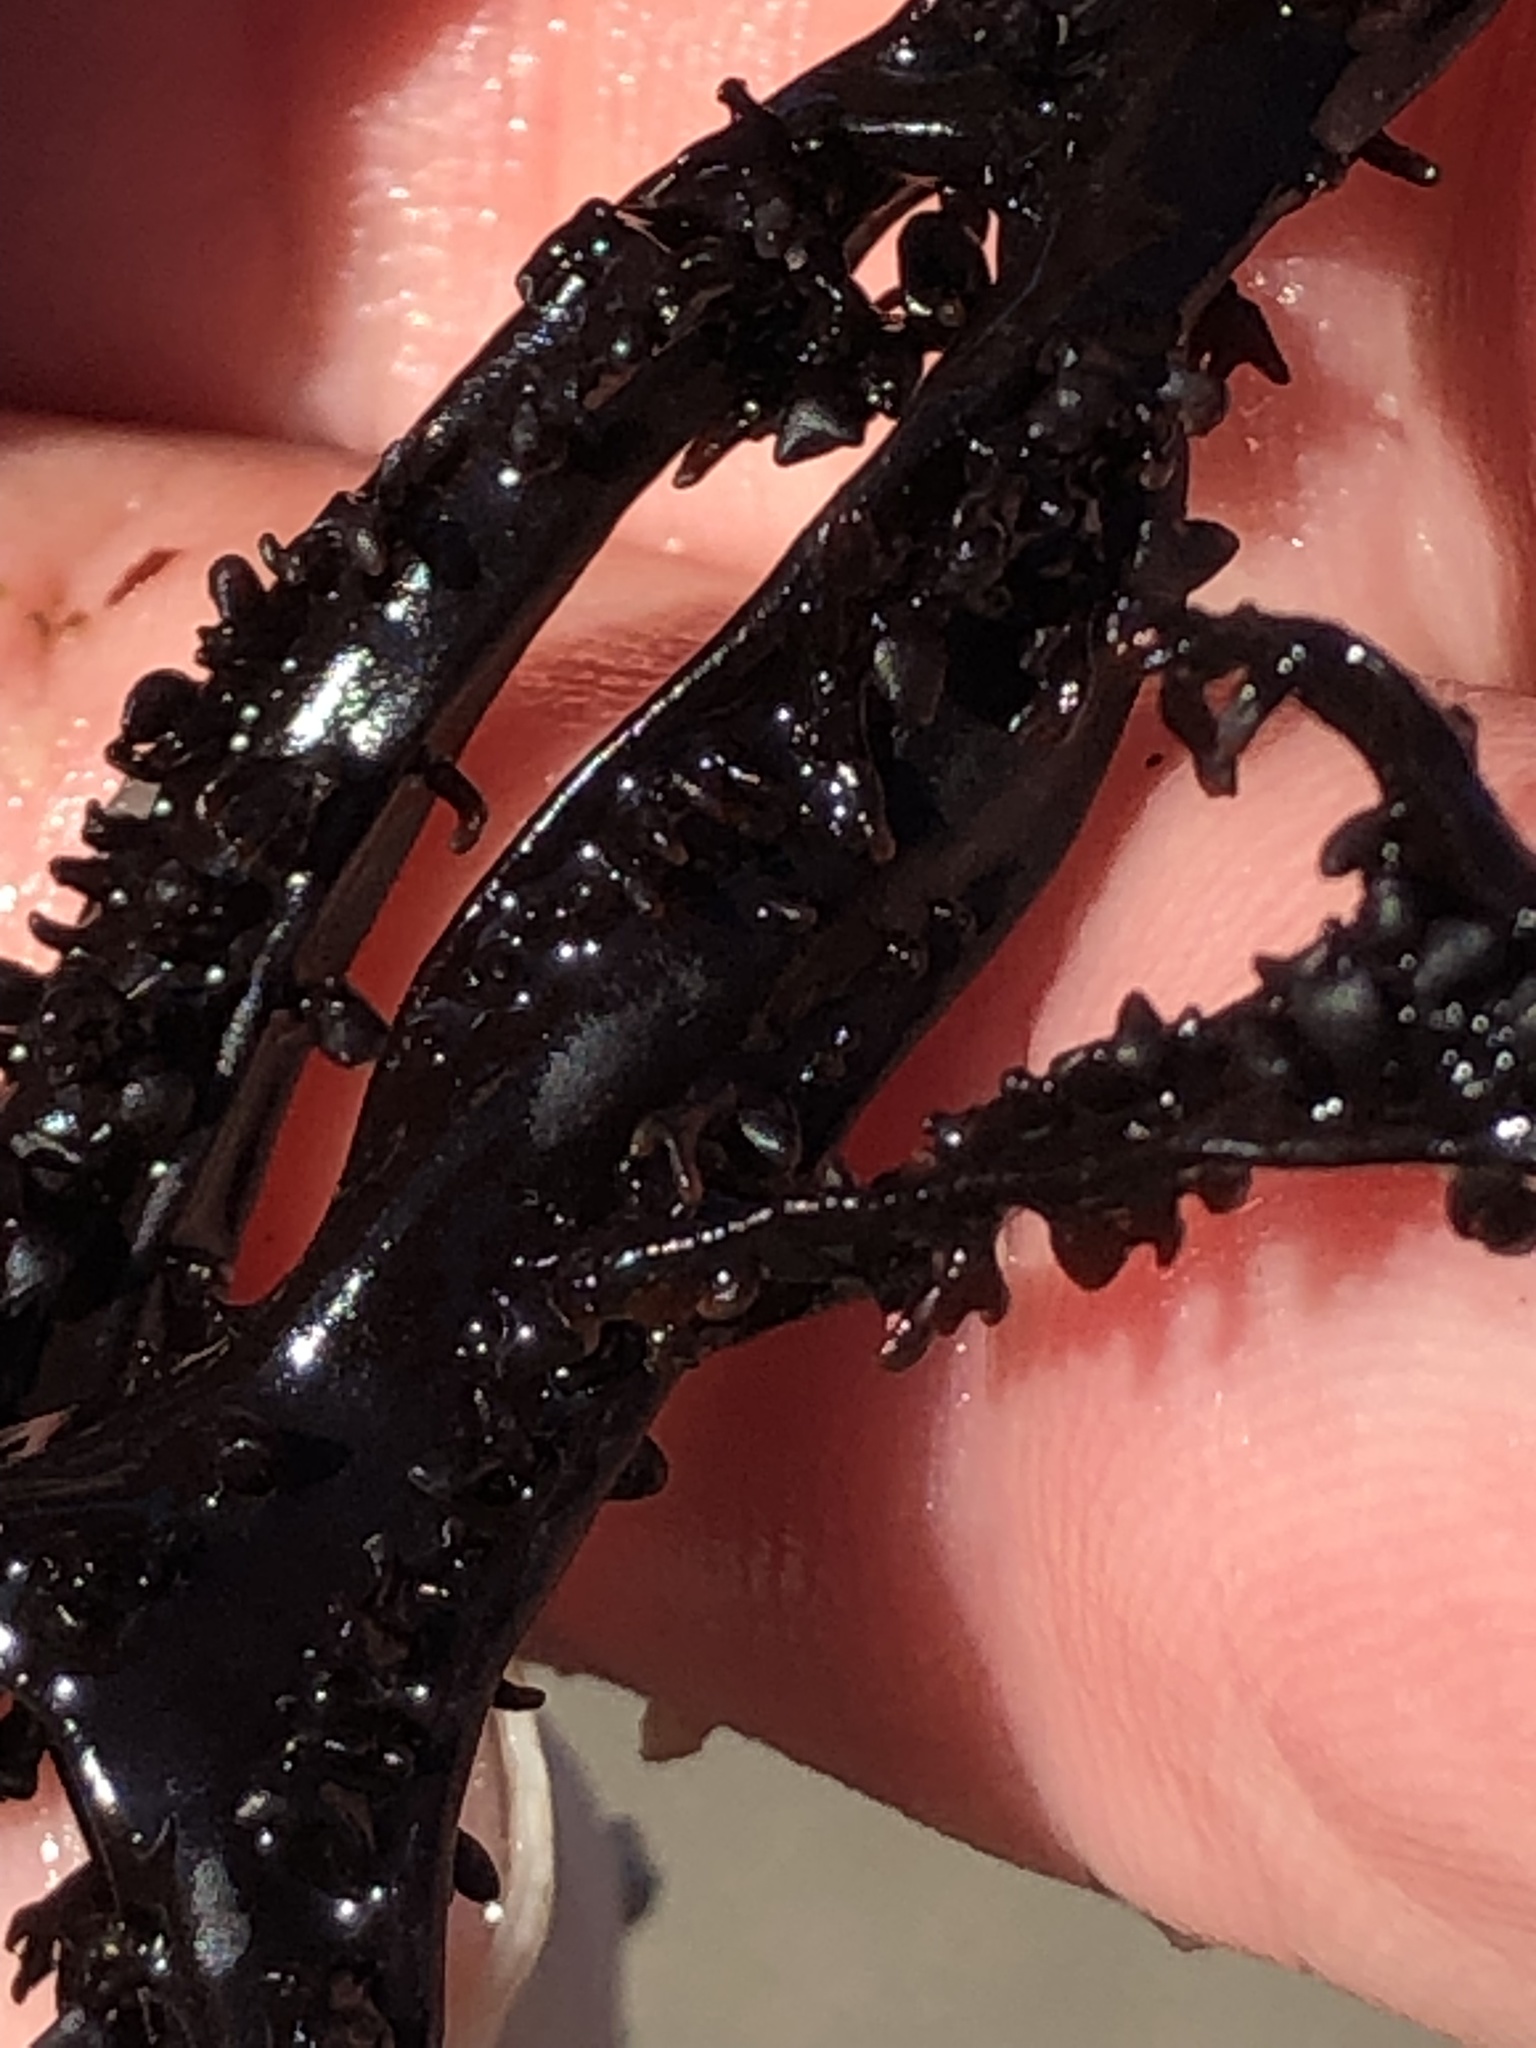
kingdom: Plantae
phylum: Rhodophyta
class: Florideophyceae
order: Gigartinales
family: Phyllophoraceae
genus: Mastocarpus
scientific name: Mastocarpus jardinii
